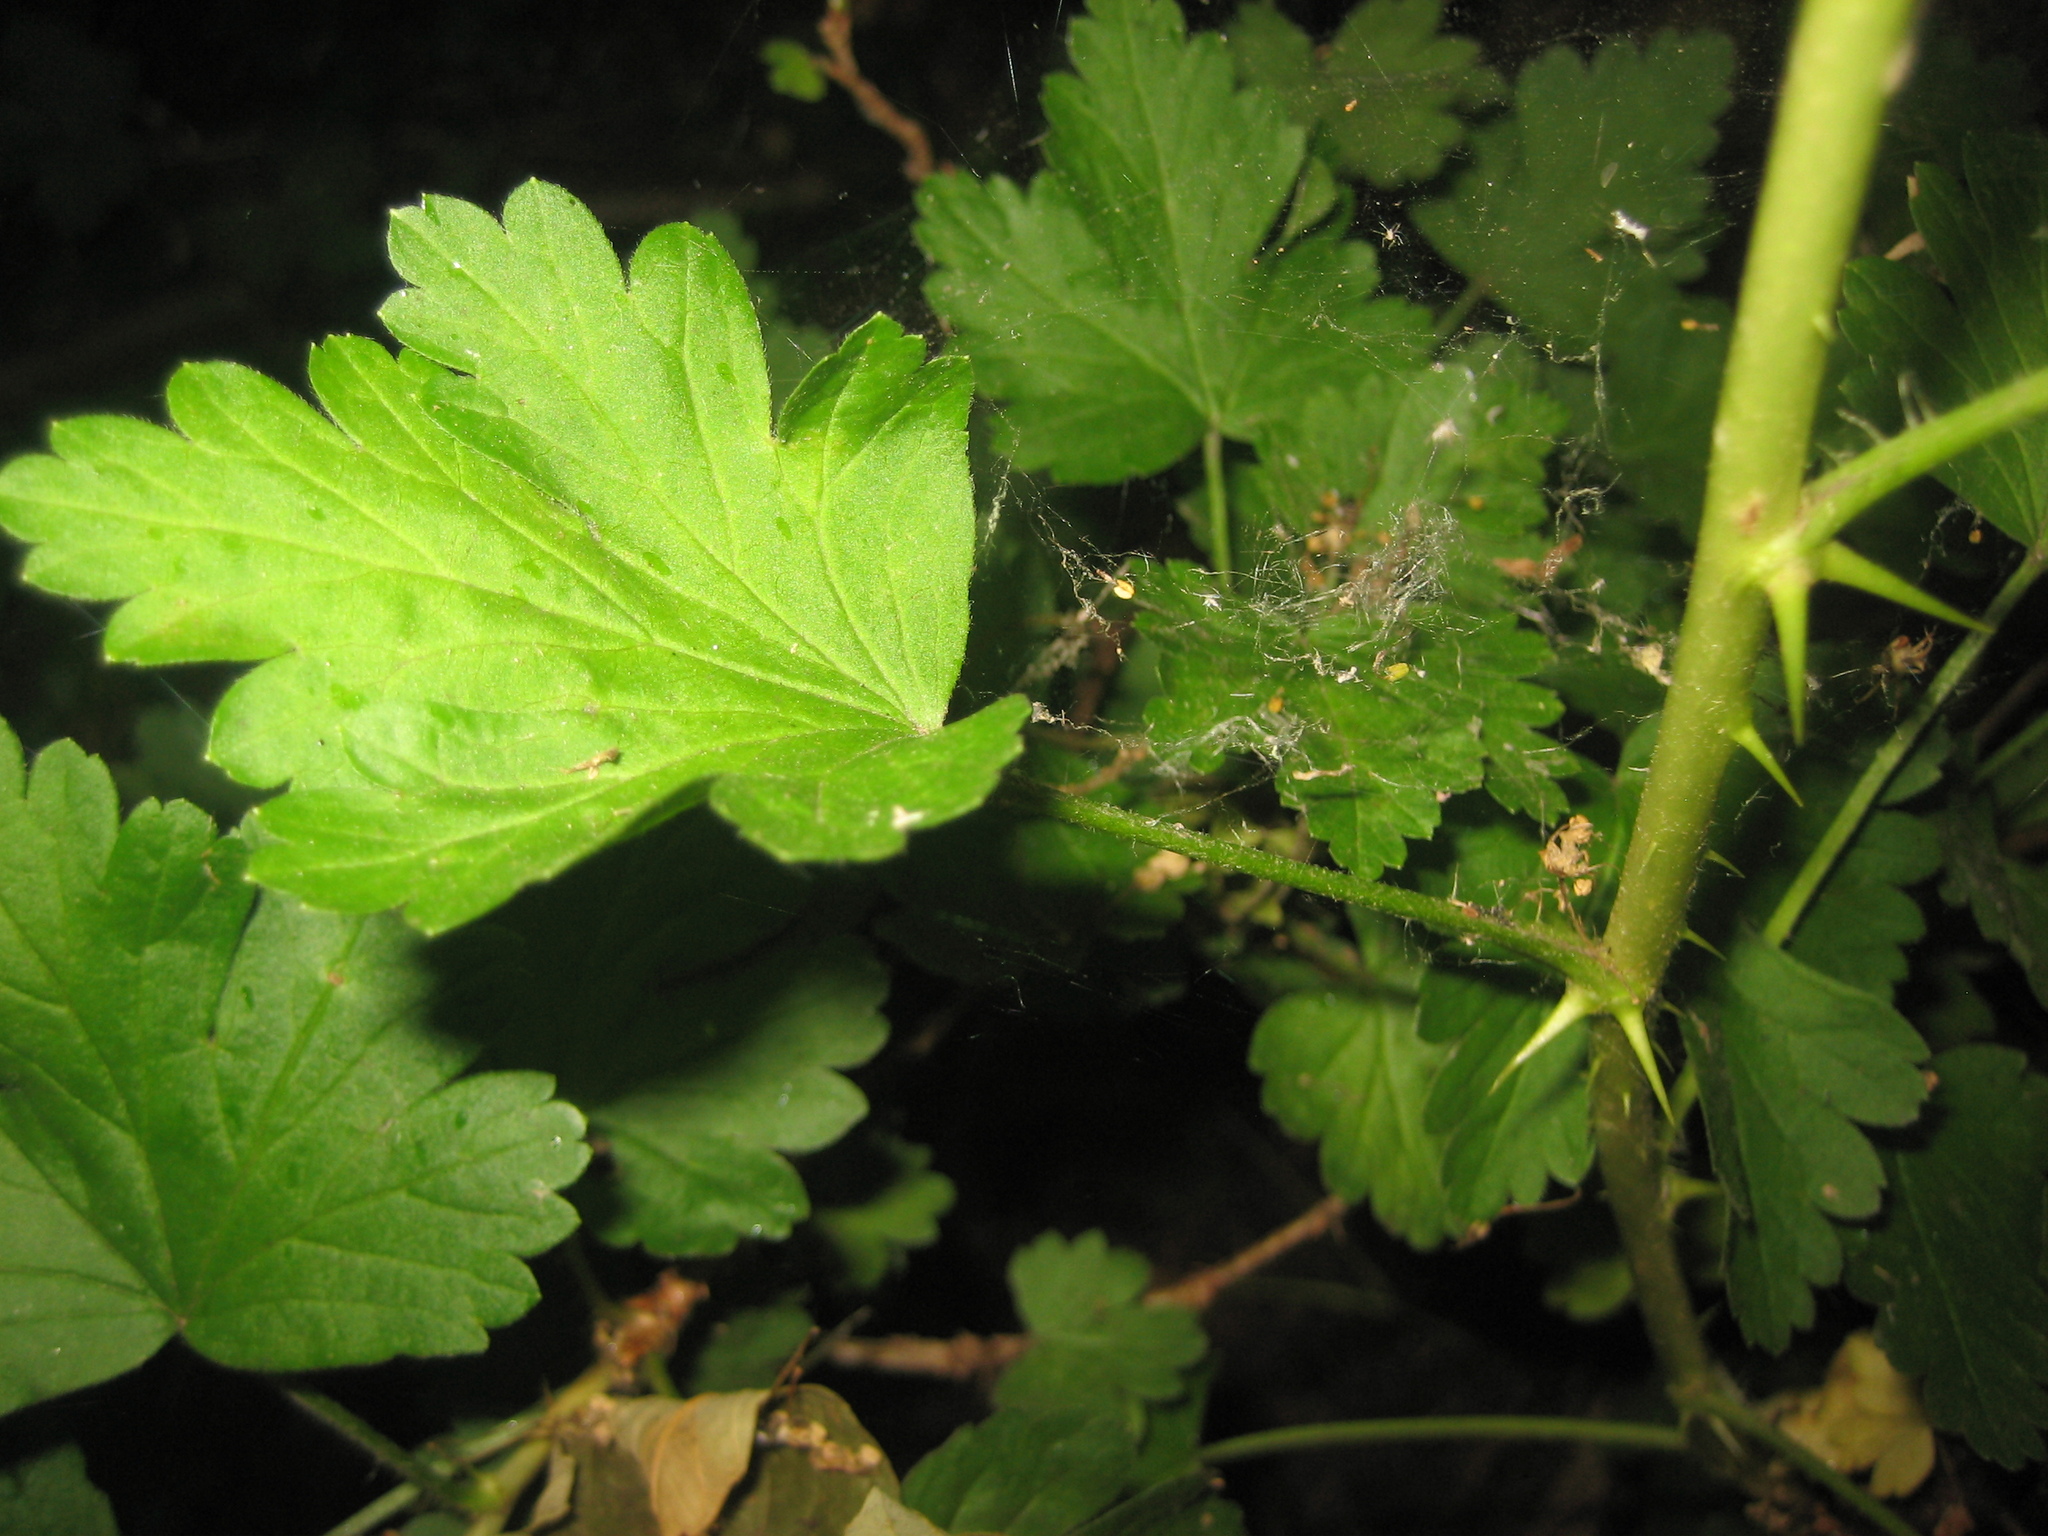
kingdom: Plantae
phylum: Tracheophyta
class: Magnoliopsida
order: Saxifragales
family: Grossulariaceae
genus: Ribes
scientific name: Ribes uva-crispa
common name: Gooseberry
